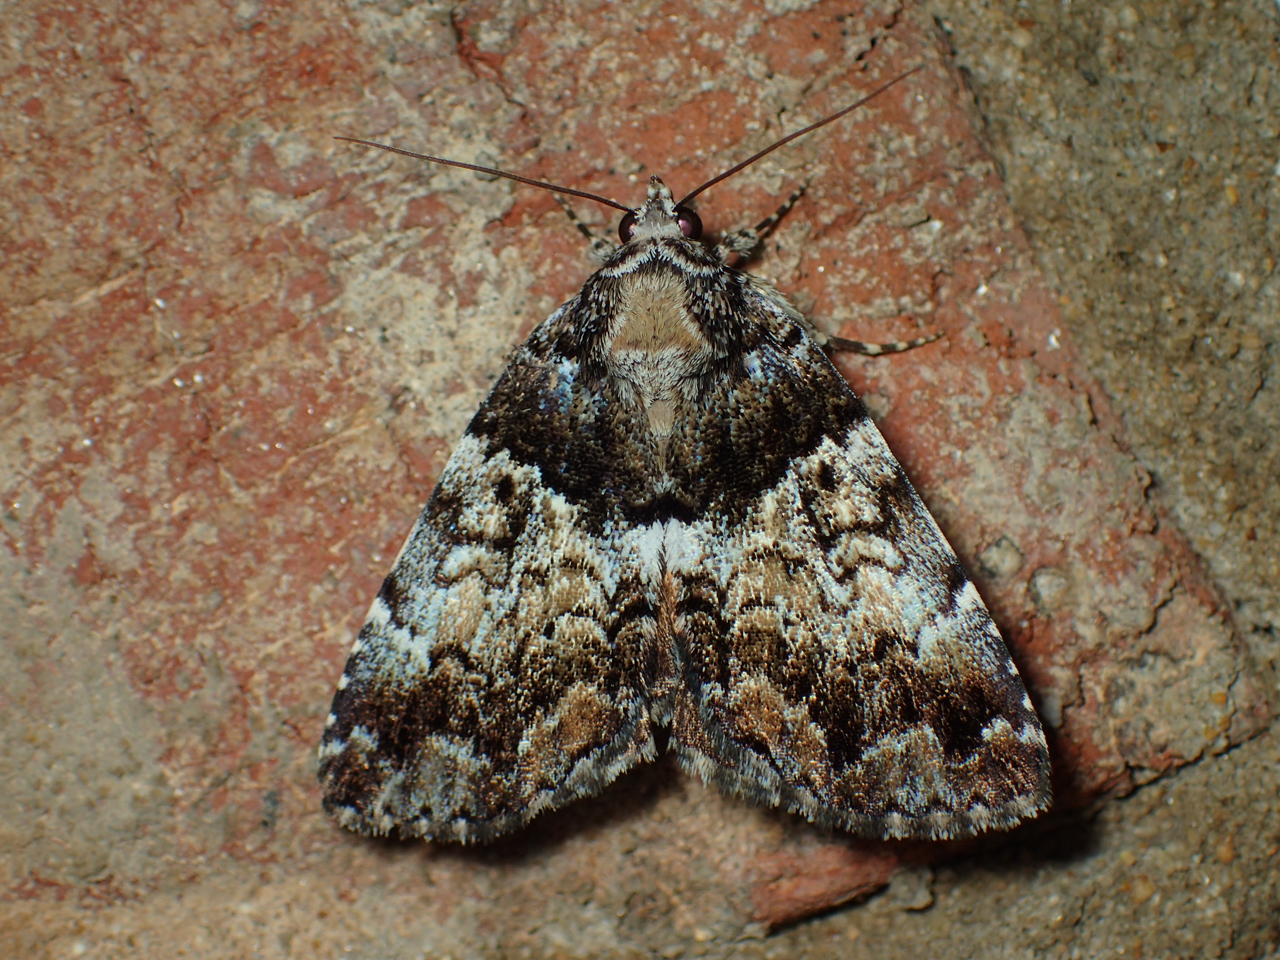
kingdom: Animalia
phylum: Arthropoda
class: Insecta
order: Lepidoptera
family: Erebidae
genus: Allotria
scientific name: Allotria elonympha
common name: False underwing
